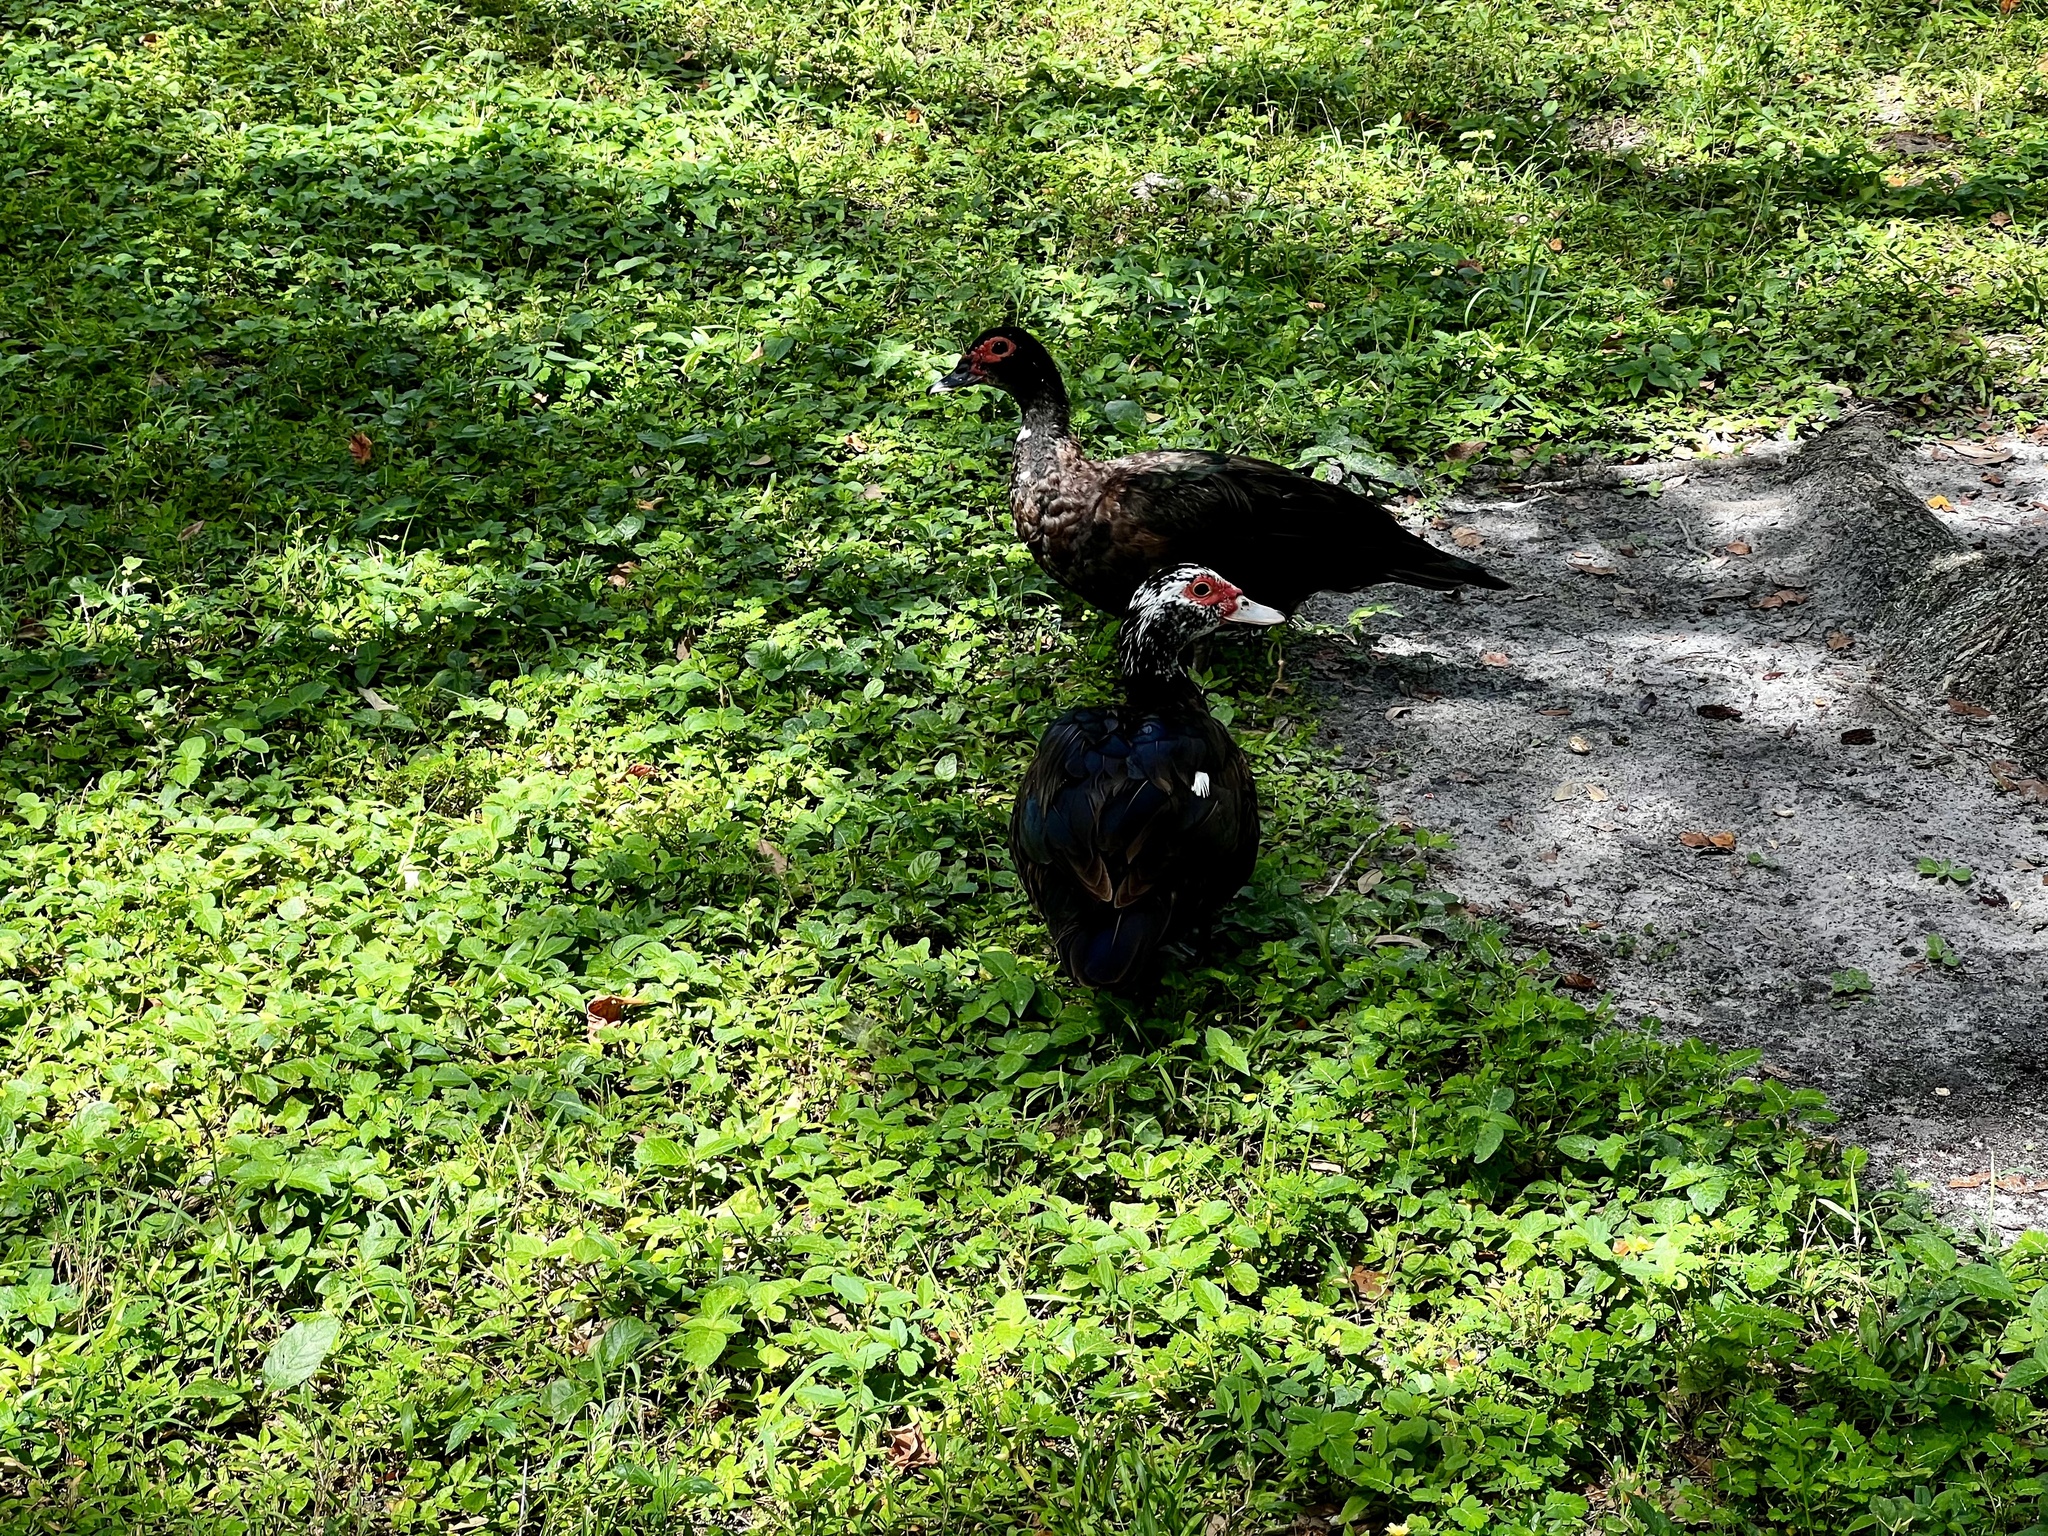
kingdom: Animalia
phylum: Chordata
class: Aves
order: Anseriformes
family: Anatidae
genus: Cairina
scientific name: Cairina moschata
